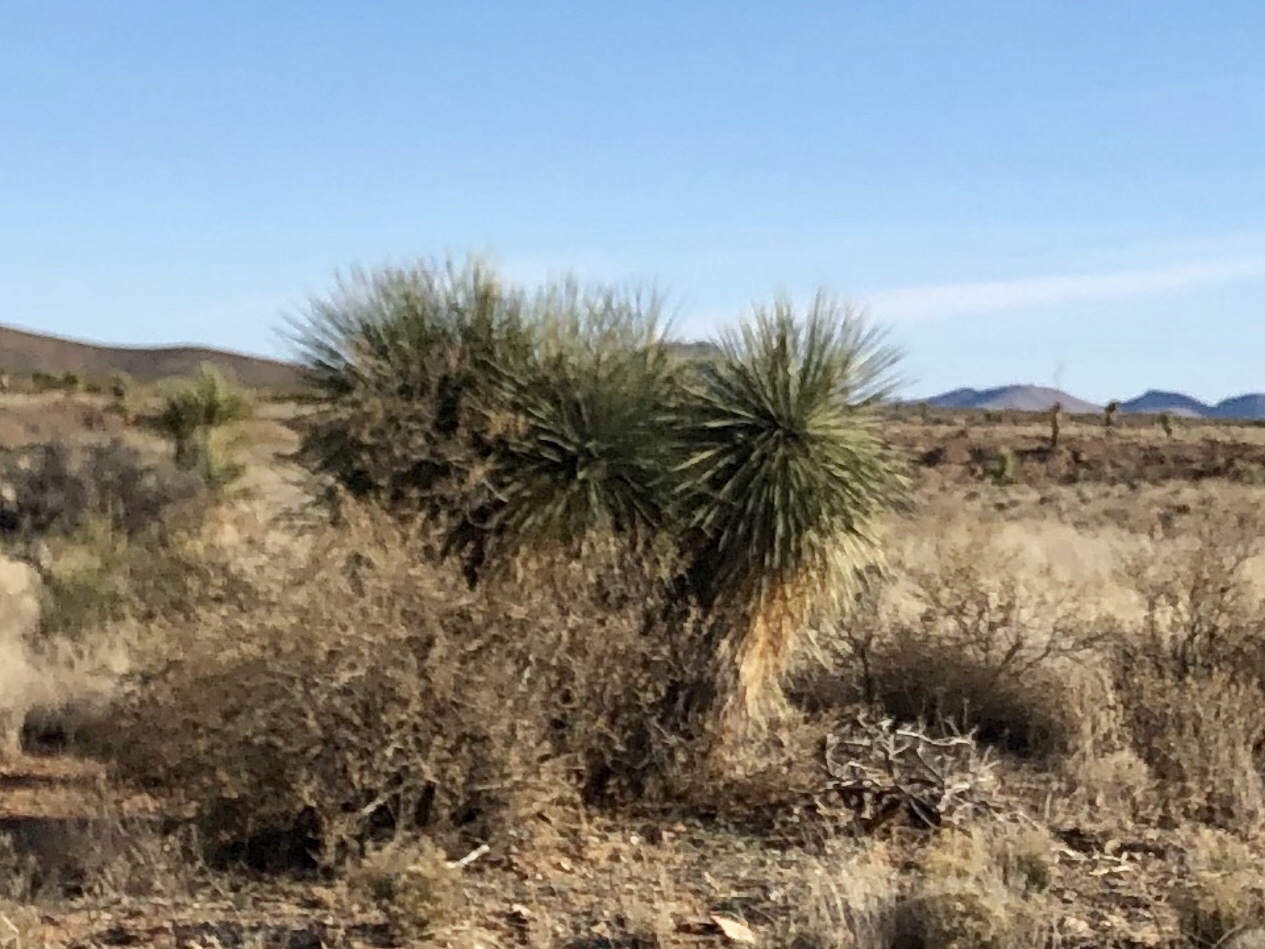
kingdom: Plantae
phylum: Tracheophyta
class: Liliopsida
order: Asparagales
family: Asparagaceae
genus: Yucca
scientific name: Yucca elata
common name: Palmella
